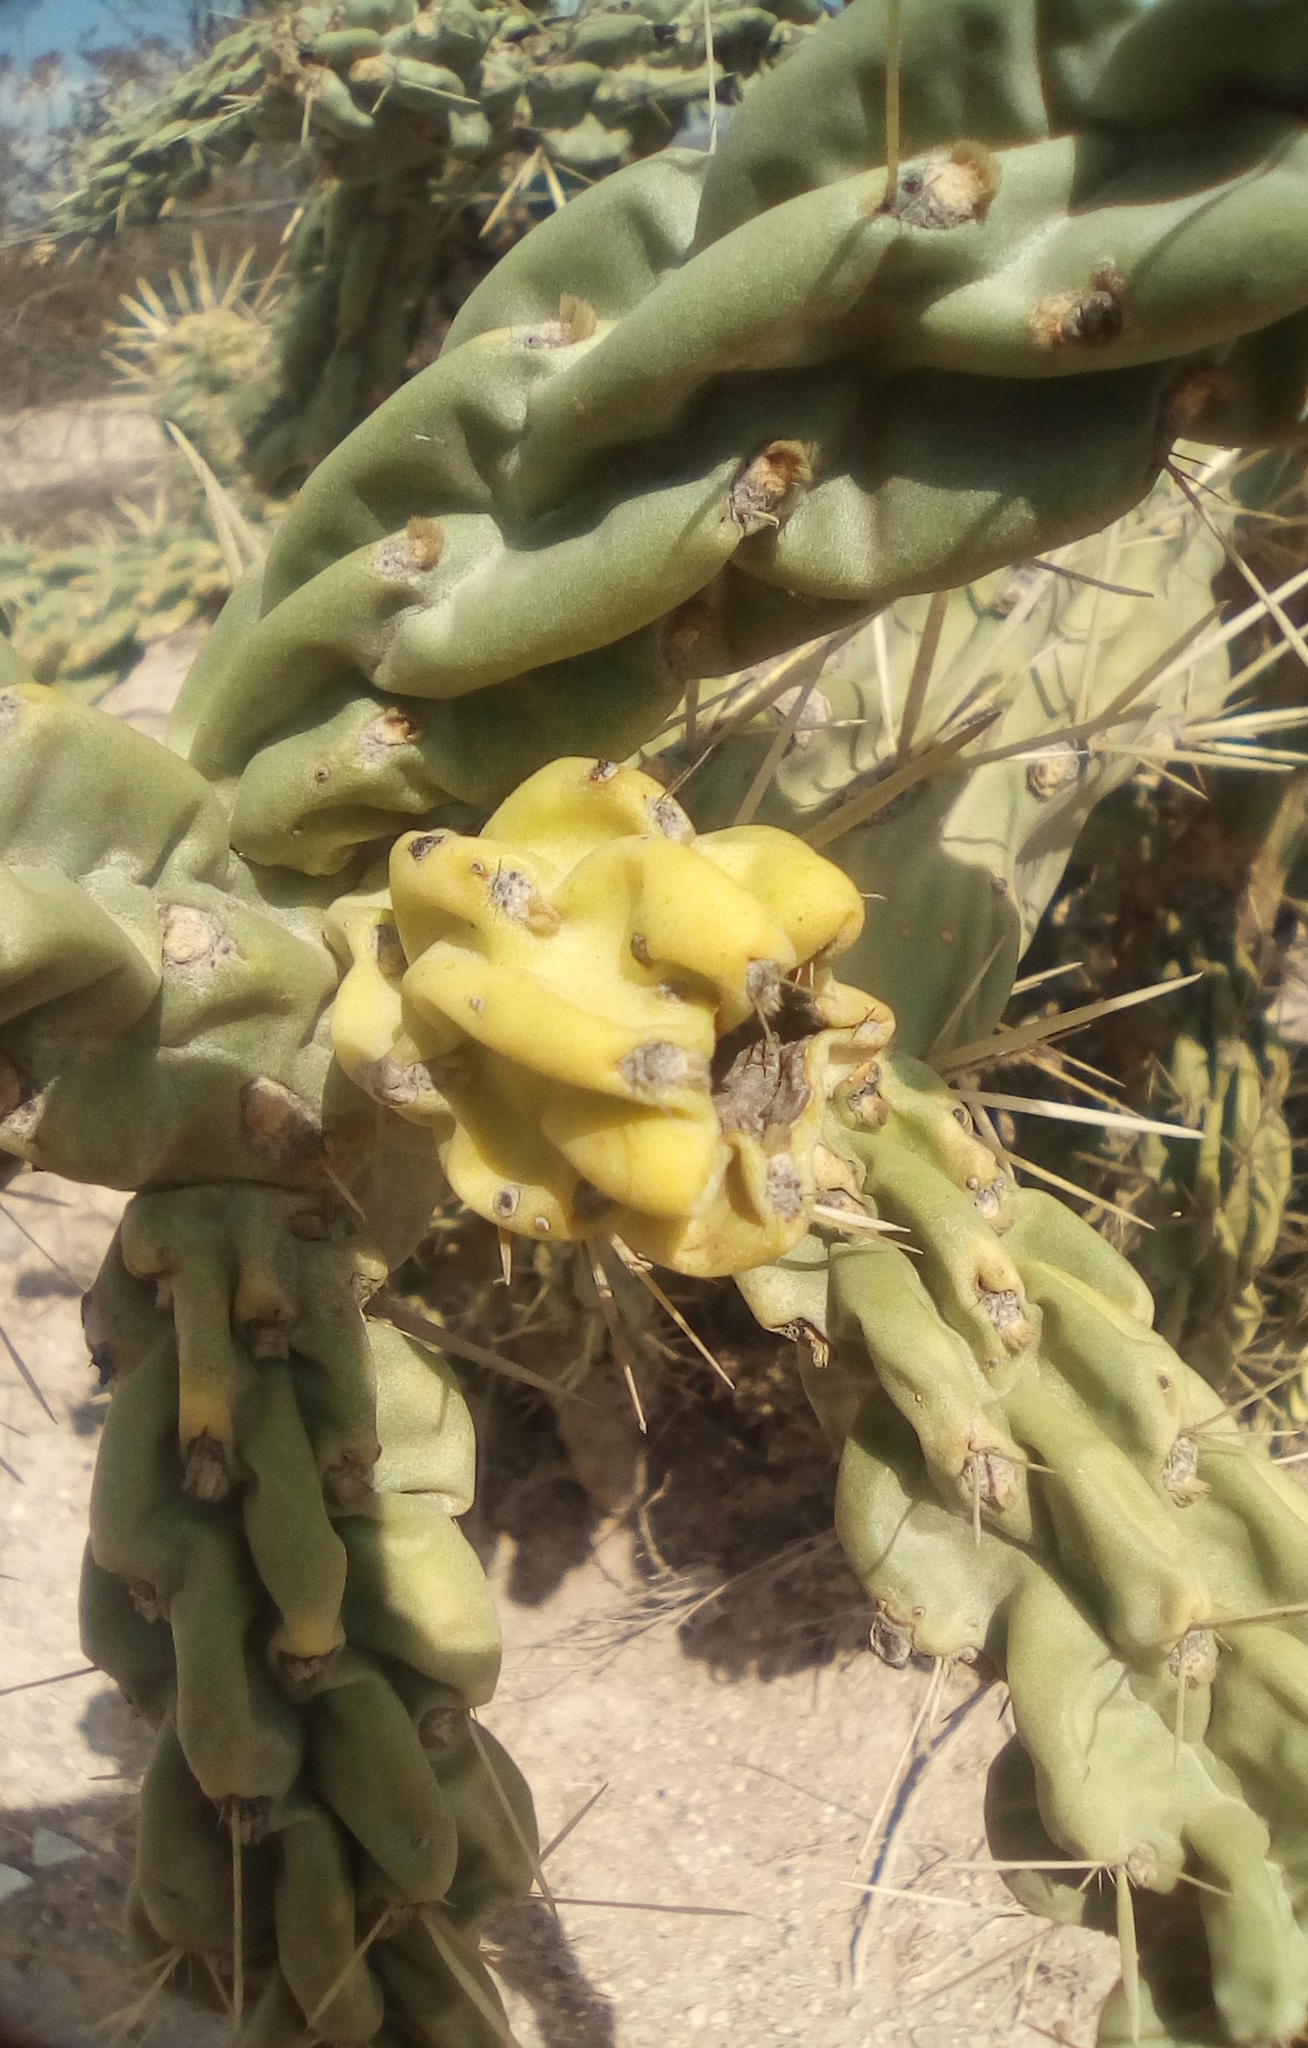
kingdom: Plantae
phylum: Tracheophyta
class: Magnoliopsida
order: Caryophyllales
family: Cactaceae
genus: Cylindropuntia
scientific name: Cylindropuntia imbricata
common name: Candelabrum cactus
